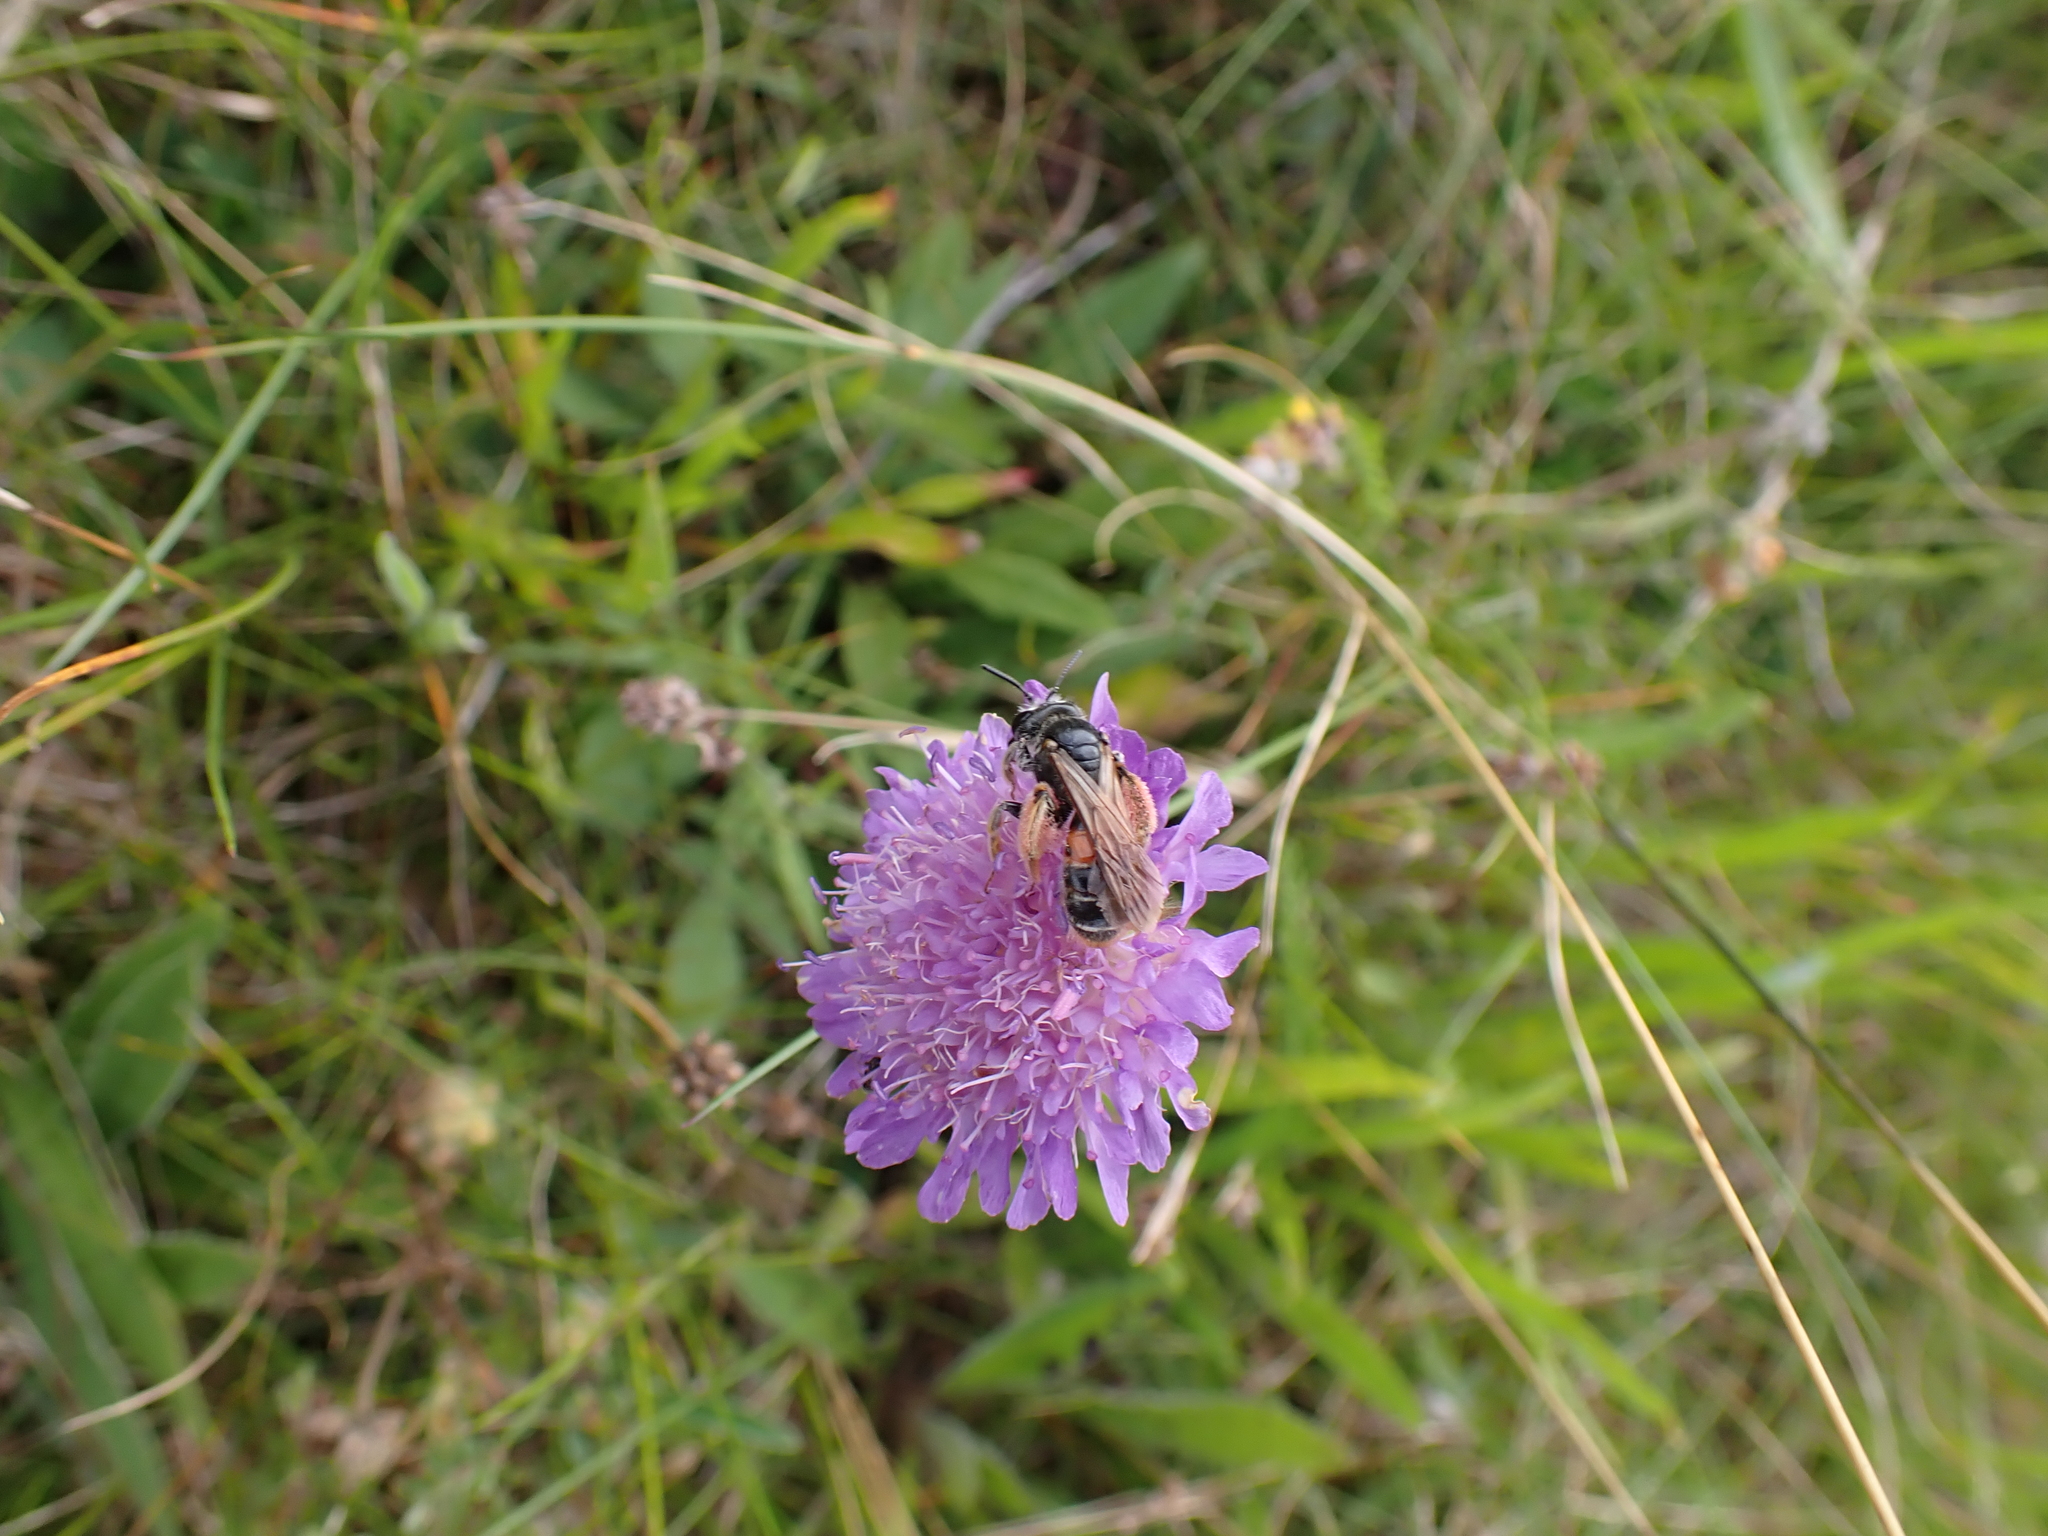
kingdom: Animalia
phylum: Arthropoda
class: Insecta
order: Hymenoptera
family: Andrenidae
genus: Andrena
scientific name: Andrena hattorfiana
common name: Large scabious mining bee
